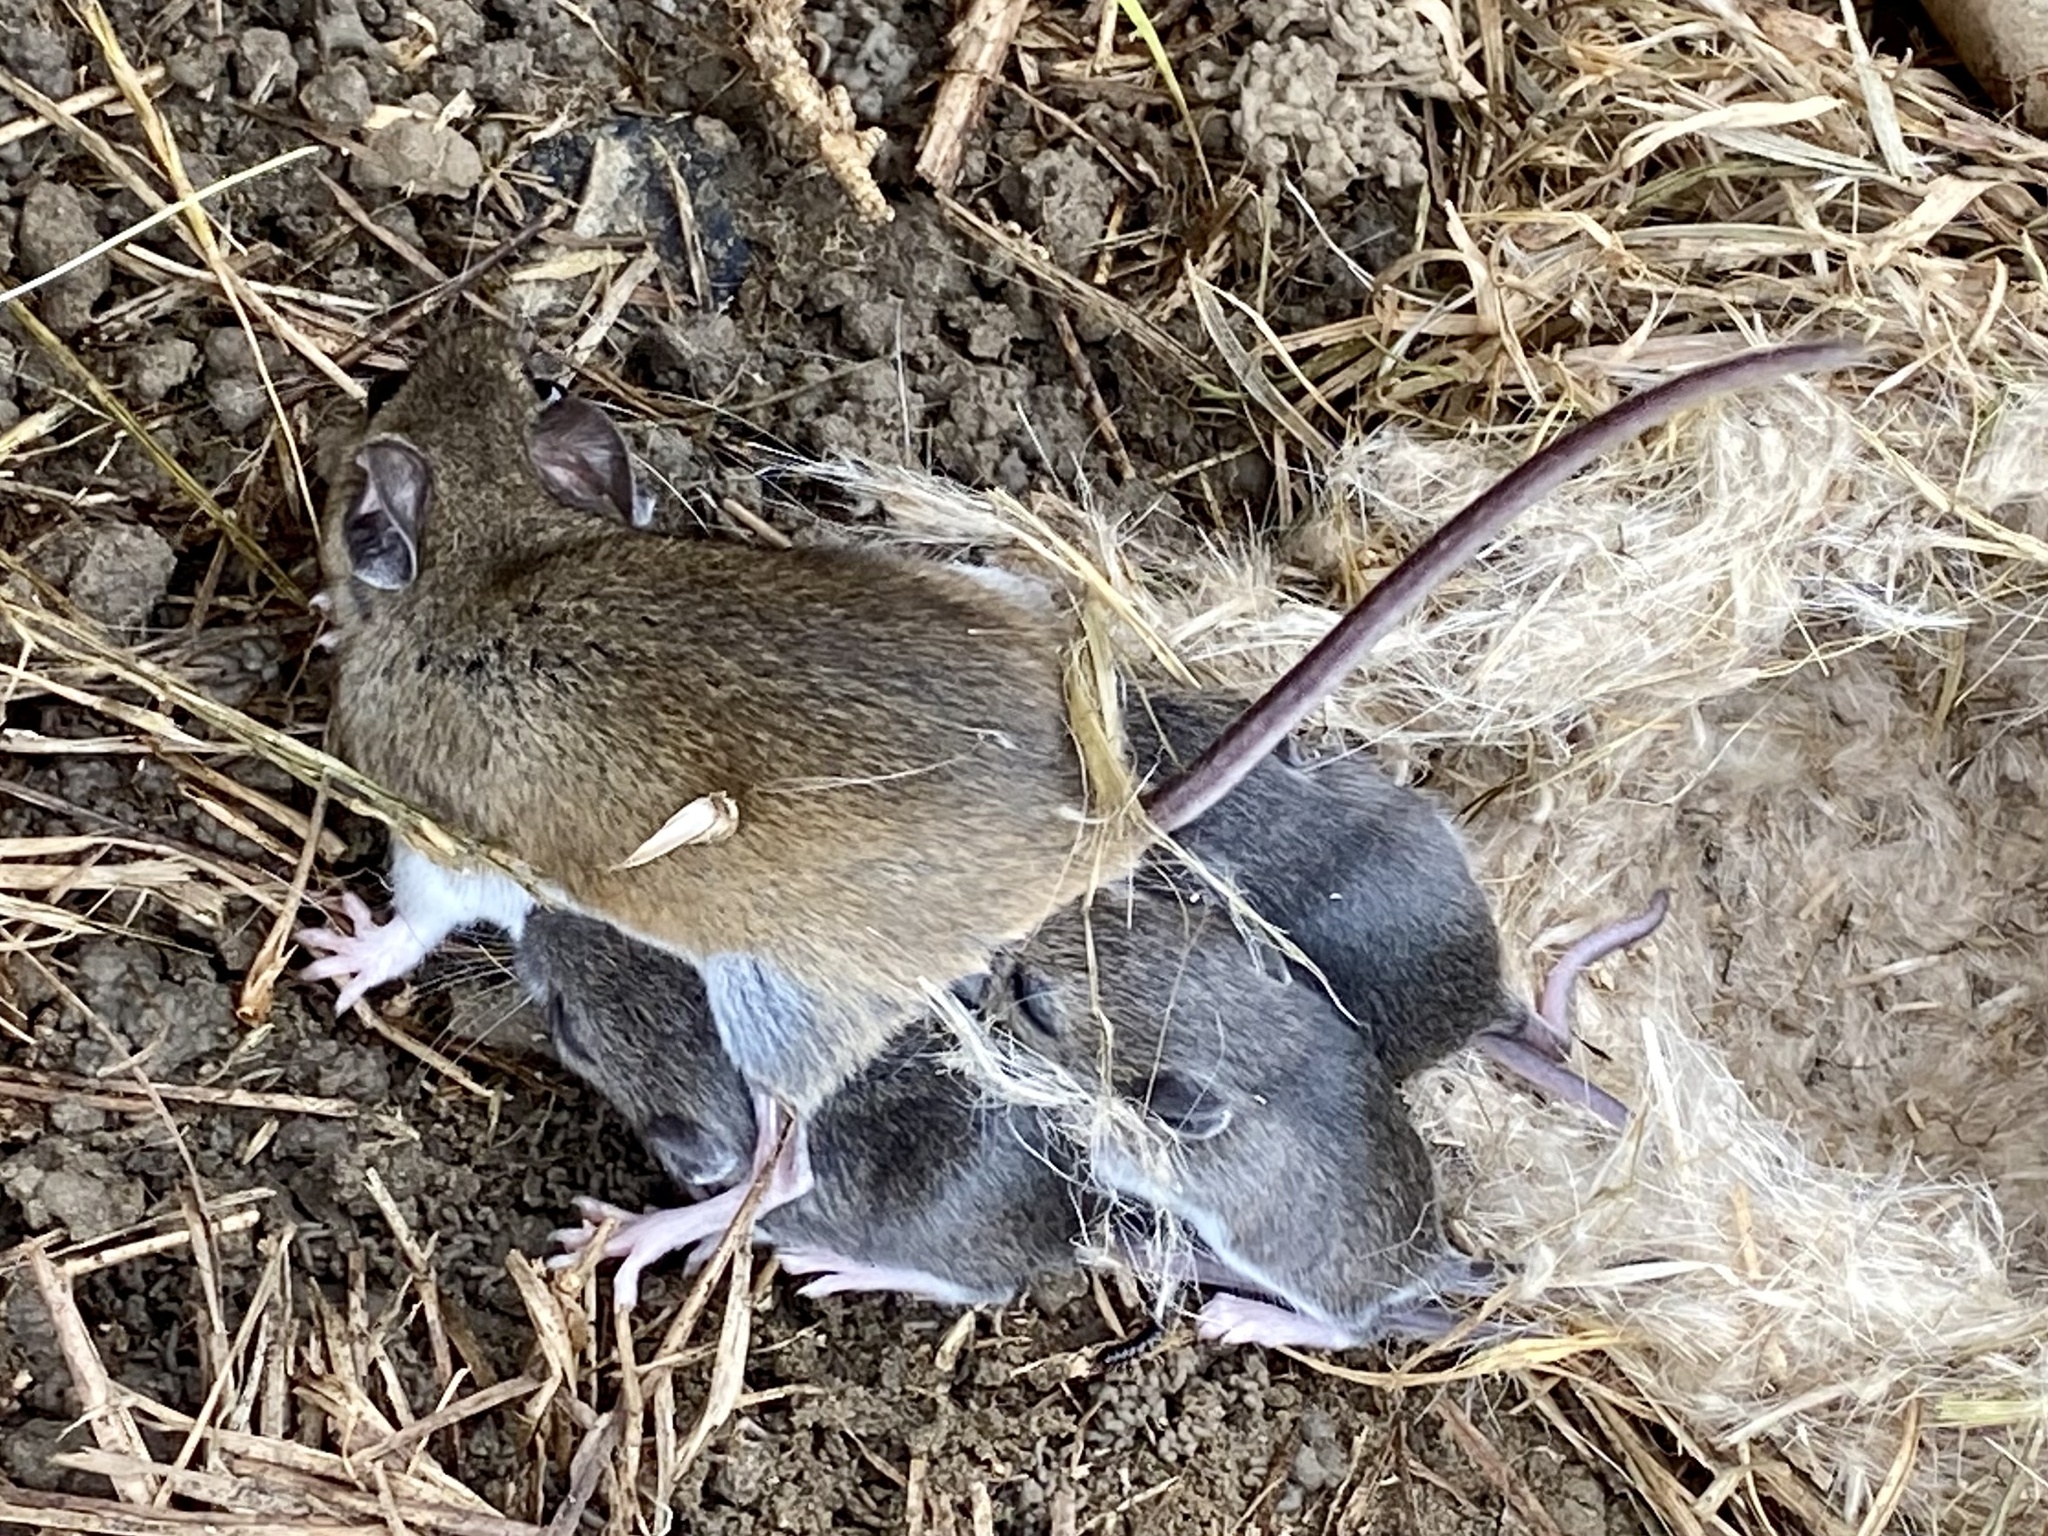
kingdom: Animalia
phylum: Chordata
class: Mammalia
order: Rodentia
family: Cricetidae
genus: Peromyscus
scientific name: Peromyscus leucopus
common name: White-footed deermouse
